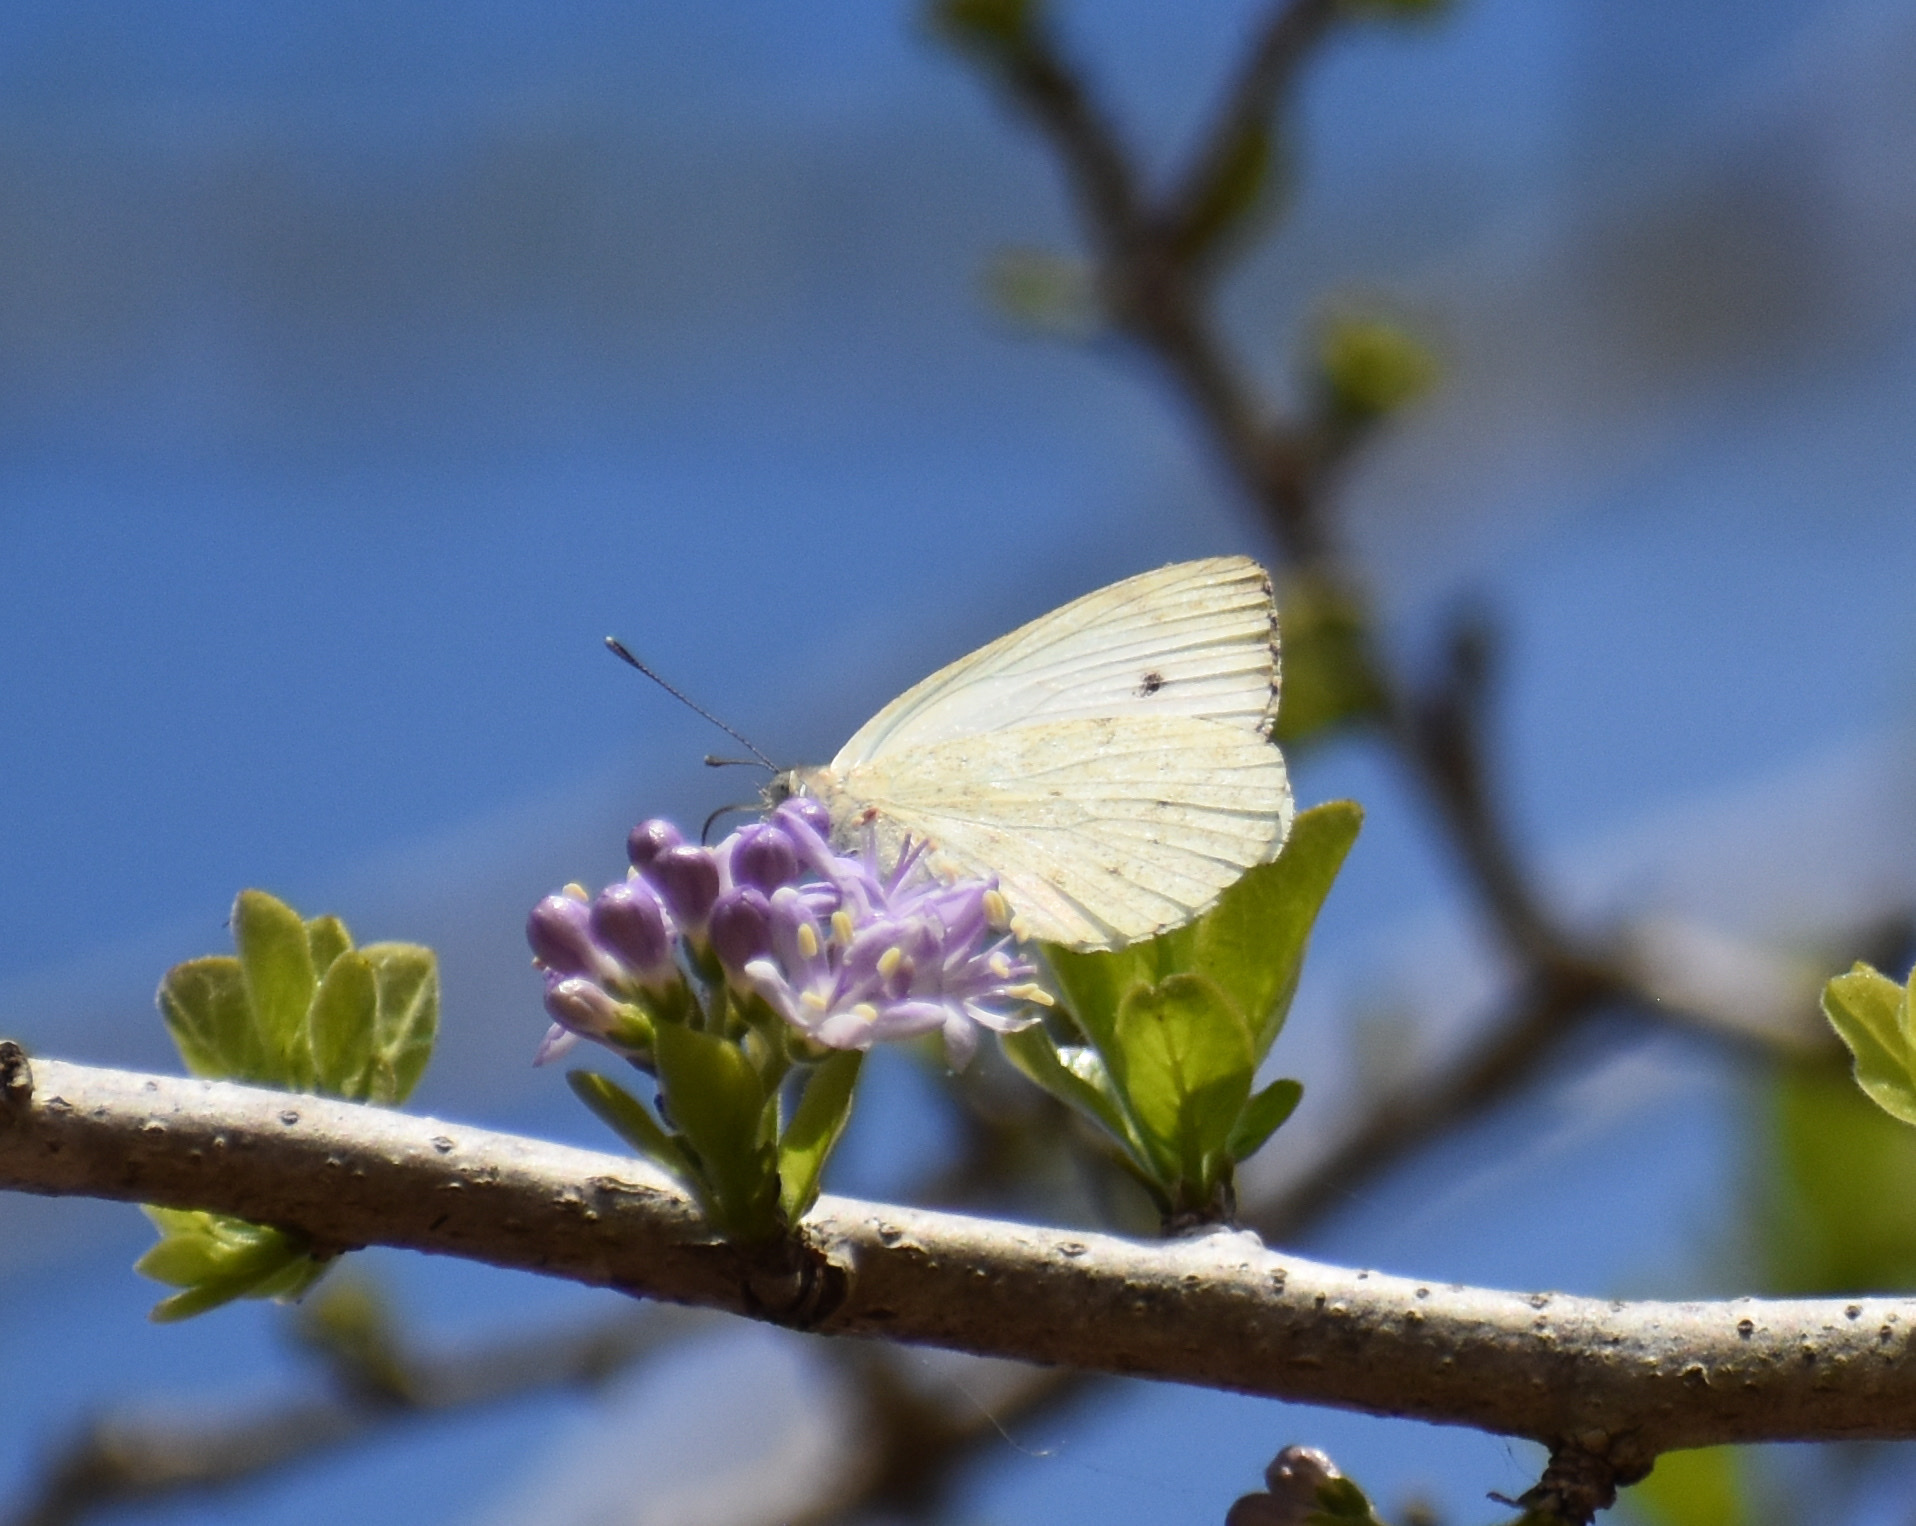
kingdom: Animalia
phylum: Arthropoda
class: Insecta
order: Lepidoptera
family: Pieridae
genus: Dixeia
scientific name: Dixeia charina
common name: African small white
